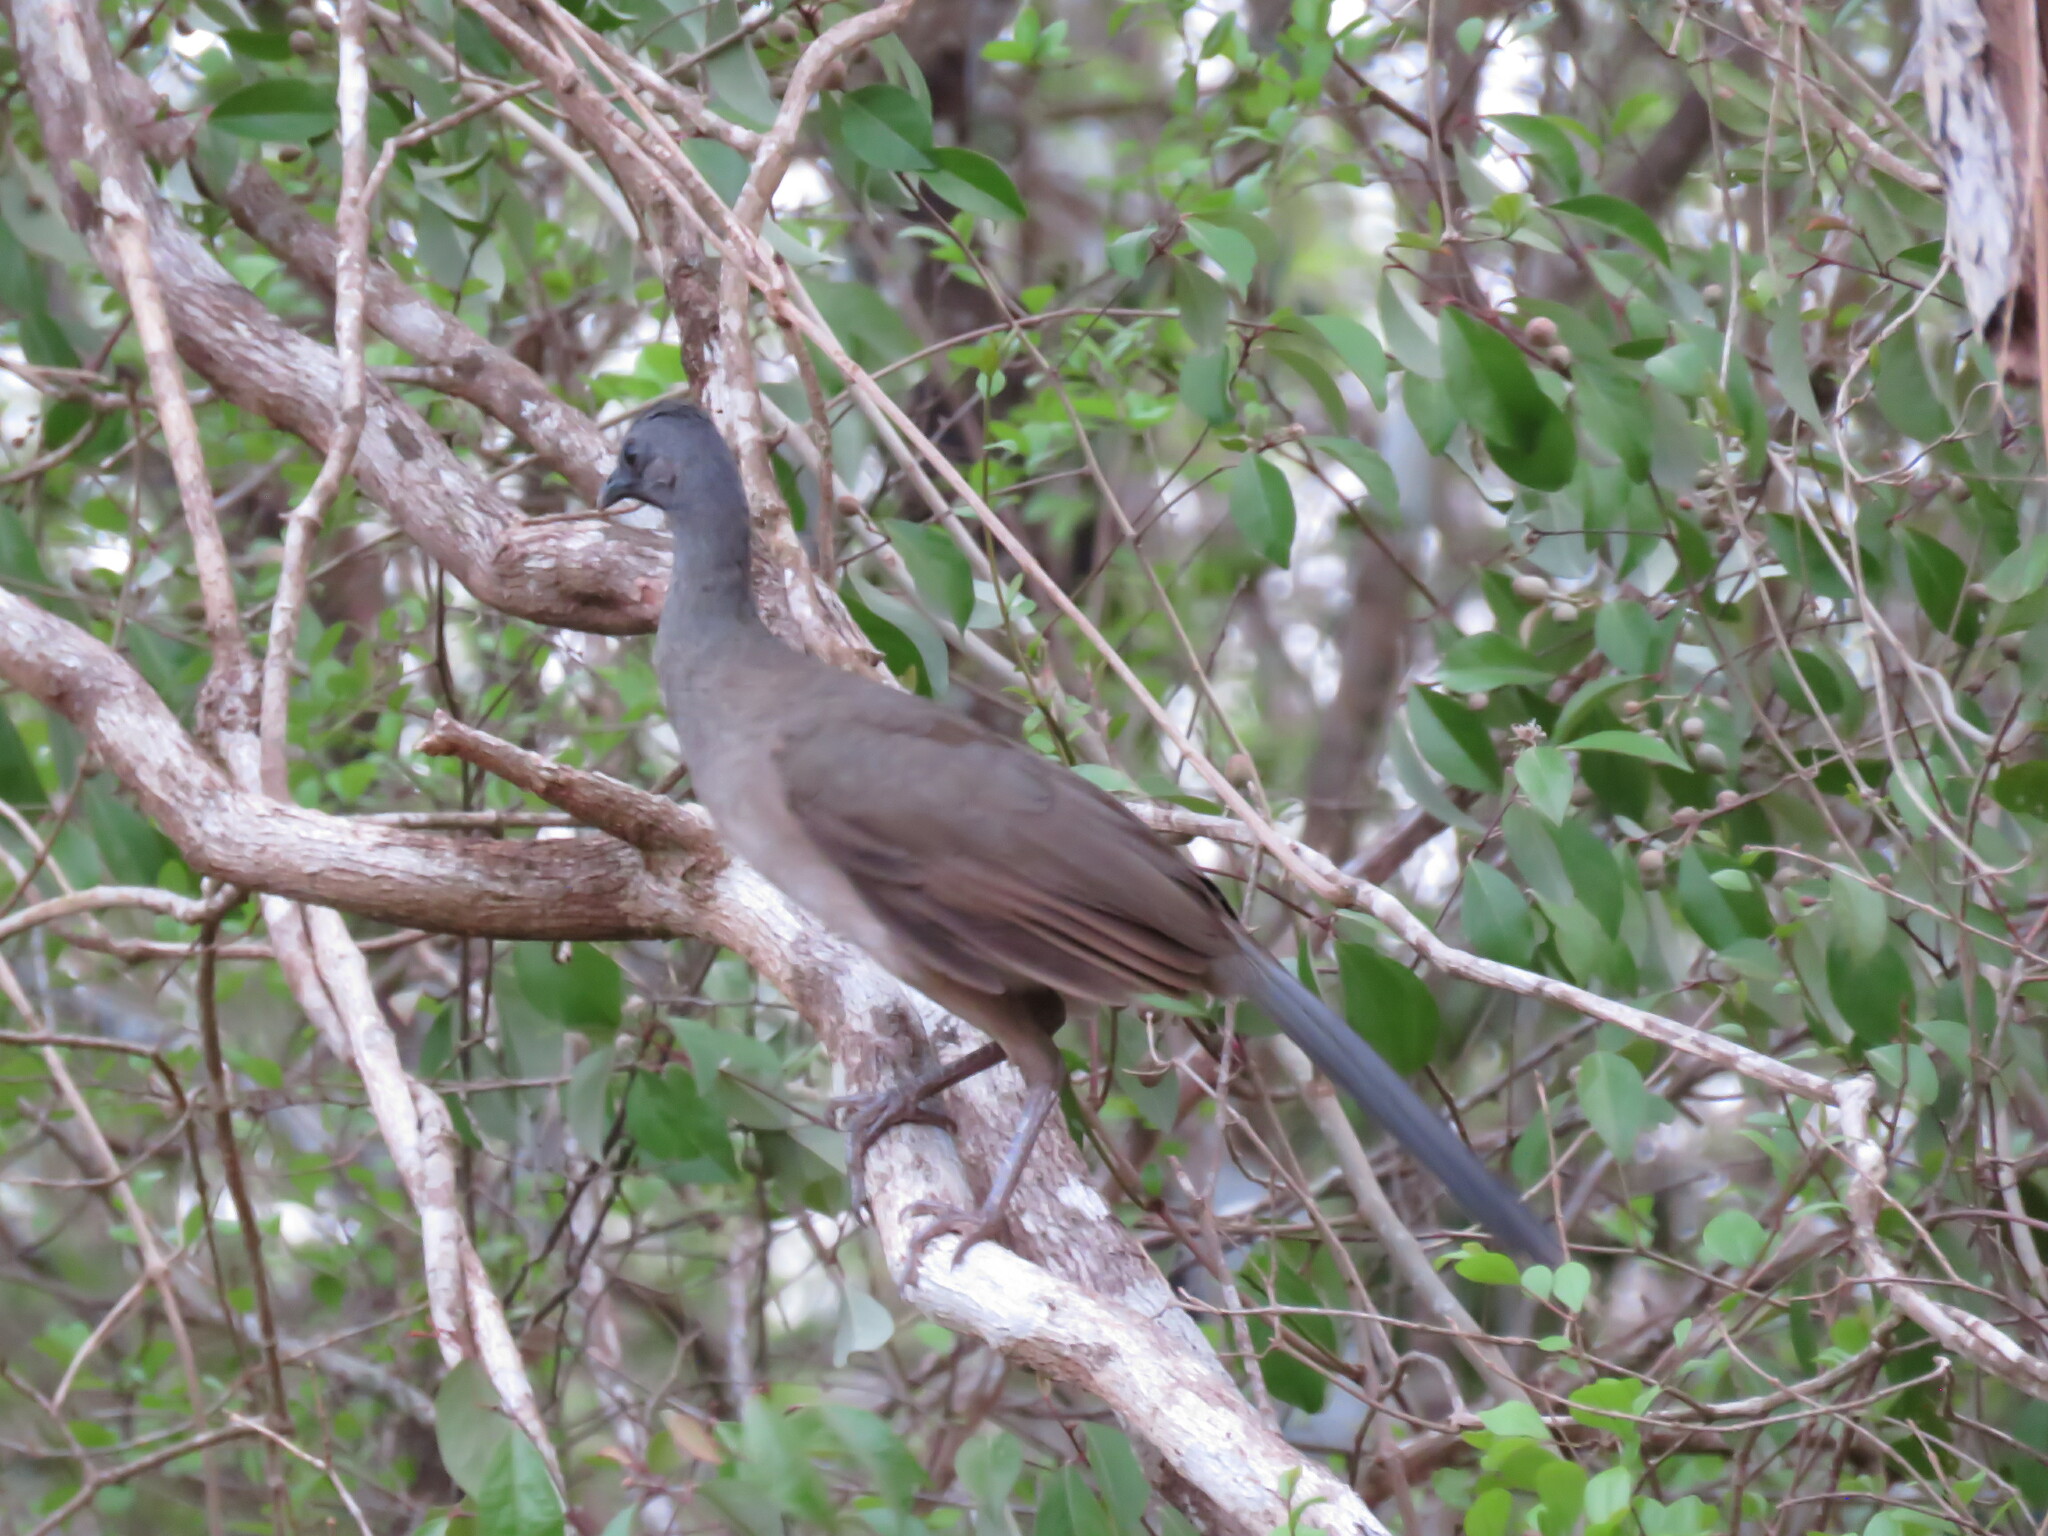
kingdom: Animalia
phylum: Chordata
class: Aves
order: Galliformes
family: Cracidae
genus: Ortalis
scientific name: Ortalis vetula
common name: Plain chachalaca
